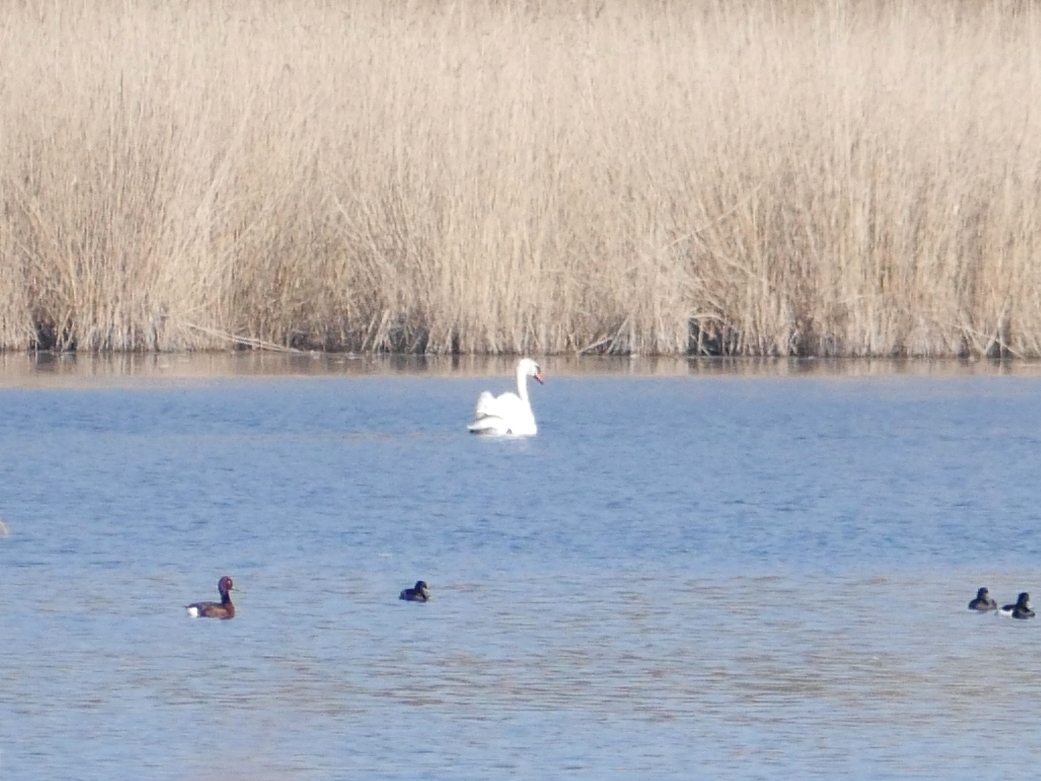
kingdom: Animalia
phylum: Chordata
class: Aves
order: Anseriformes
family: Anatidae
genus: Cygnus
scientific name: Cygnus olor
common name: Mute swan
